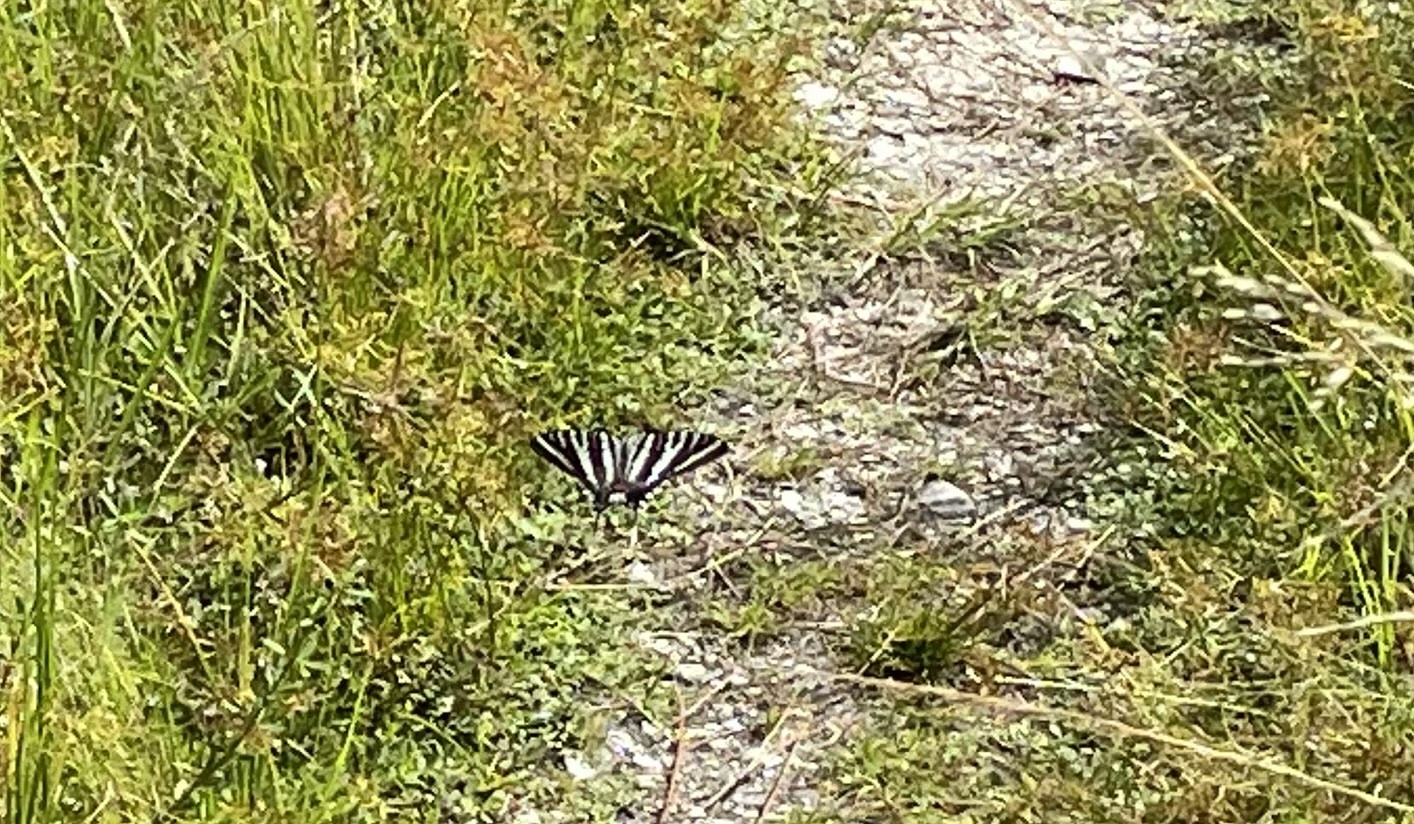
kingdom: Animalia
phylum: Arthropoda
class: Insecta
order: Lepidoptera
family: Papilionidae
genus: Protographium
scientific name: Protographium marcellus
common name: Zebra swallowtail
